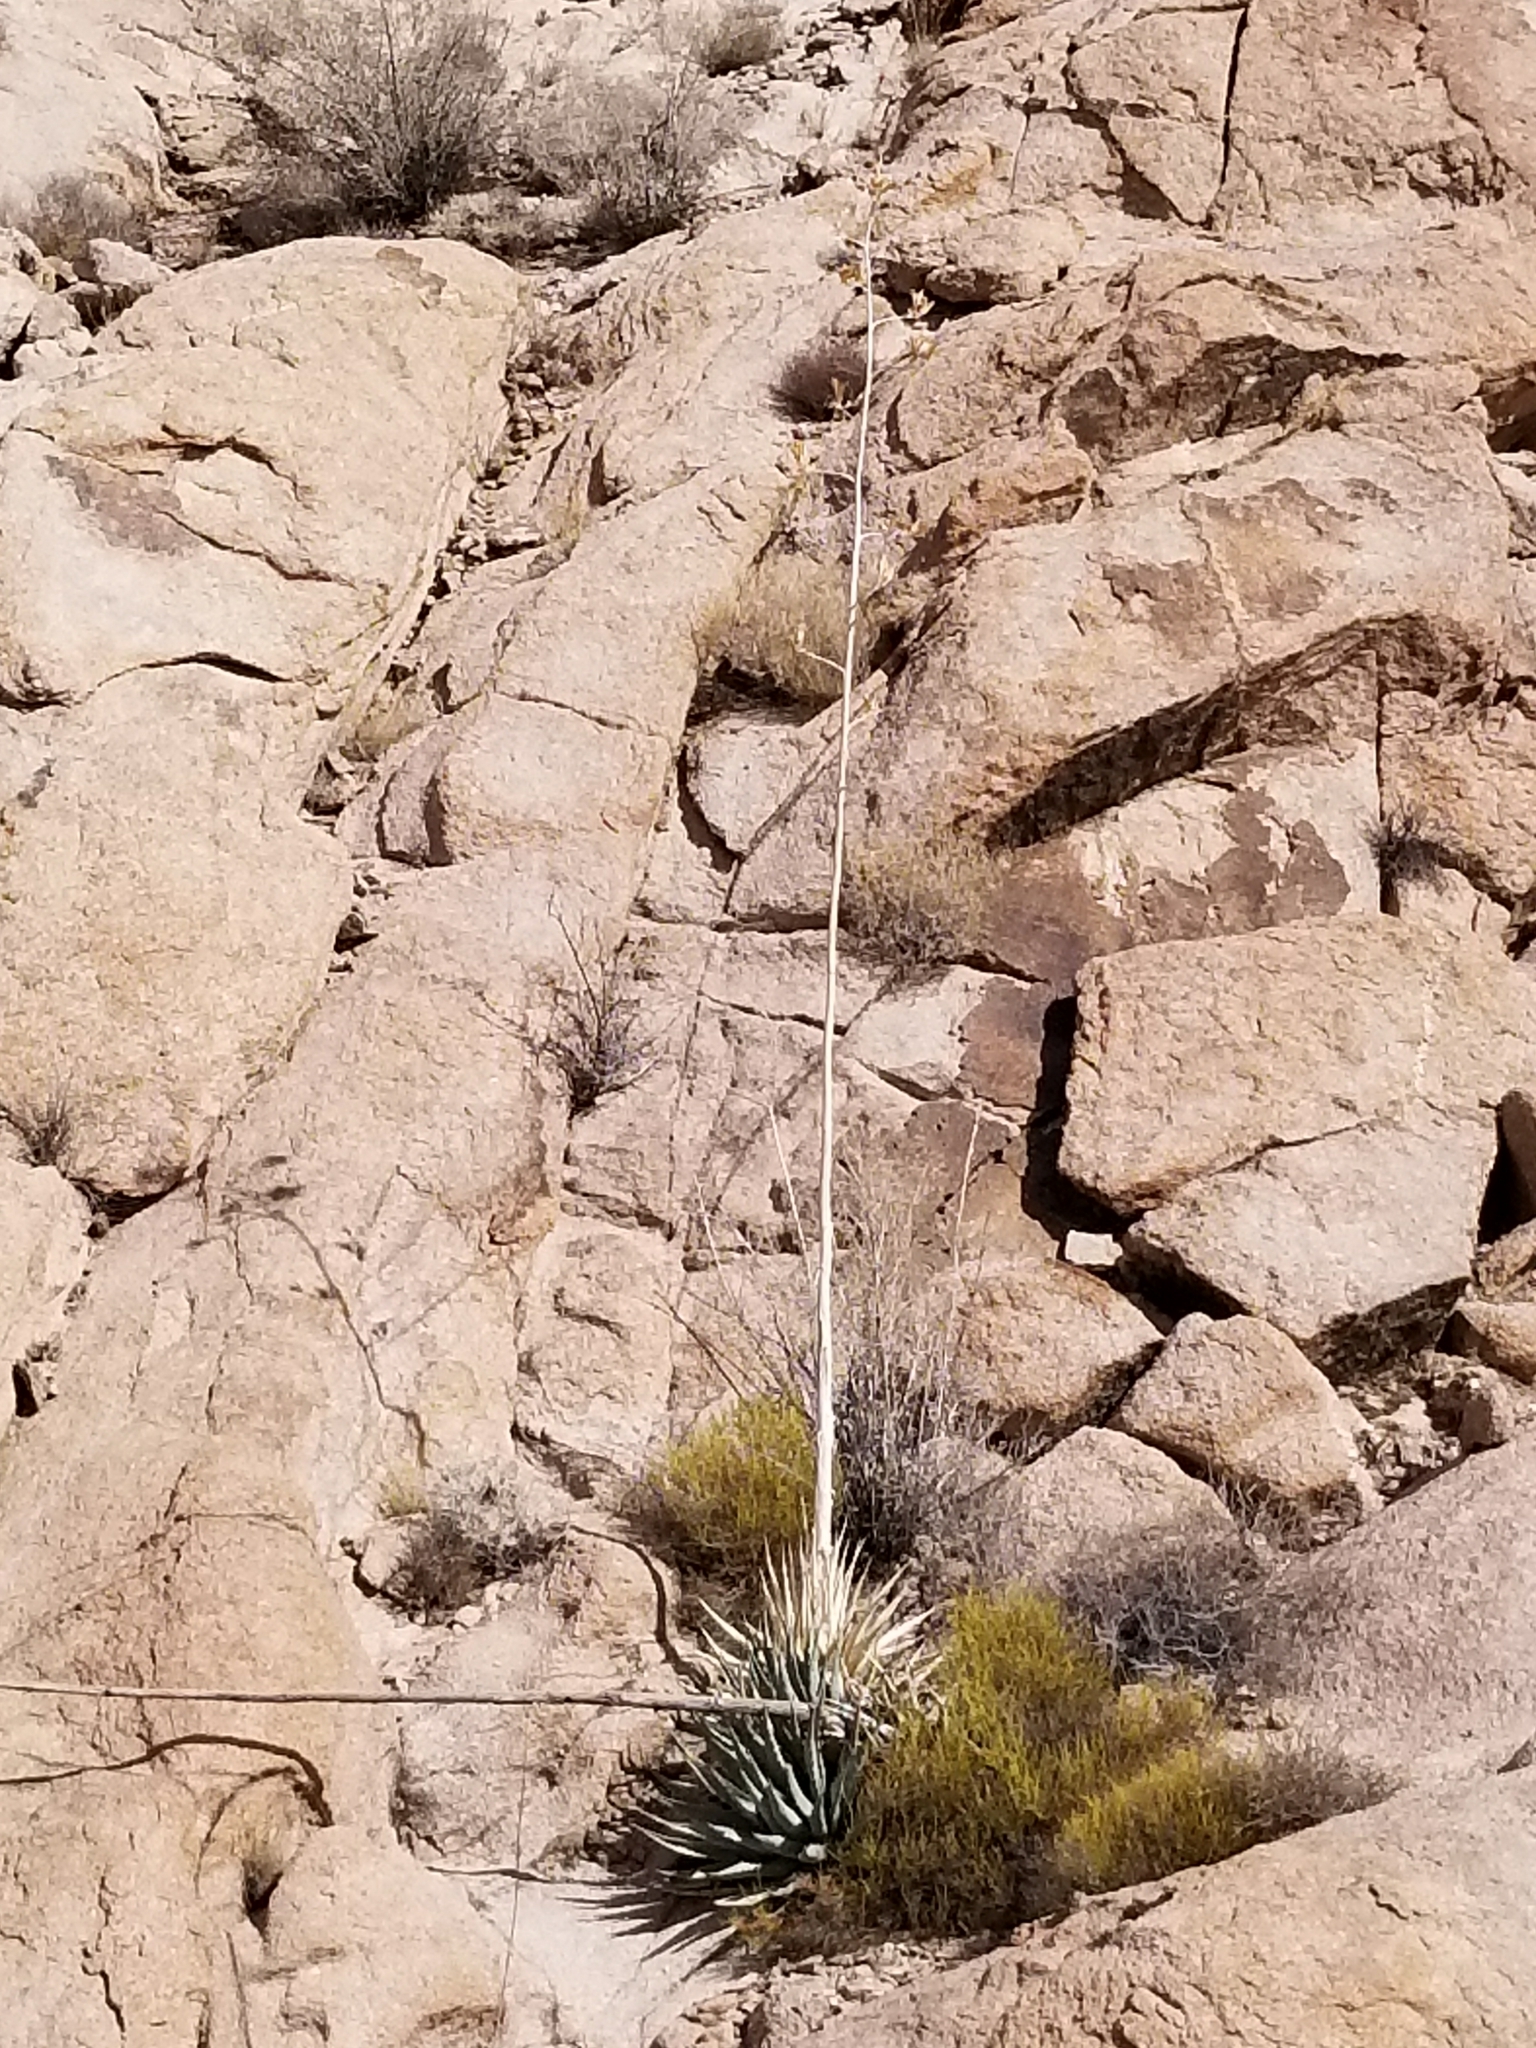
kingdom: Plantae
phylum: Tracheophyta
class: Liliopsida
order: Asparagales
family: Asparagaceae
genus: Agave
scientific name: Agave simplex
